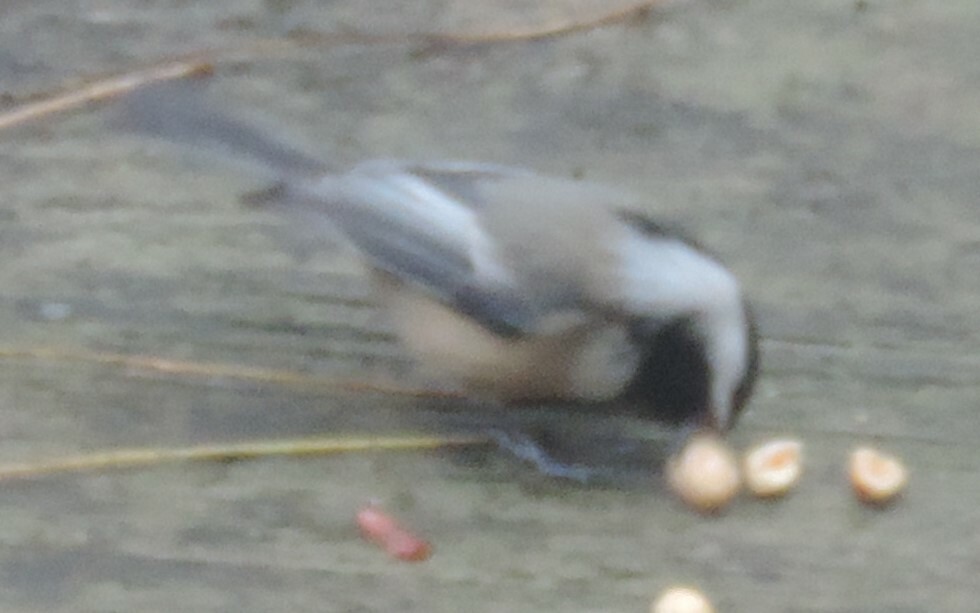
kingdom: Animalia
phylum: Chordata
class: Aves
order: Passeriformes
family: Paridae
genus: Poecile
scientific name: Poecile atricapillus
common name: Black-capped chickadee
